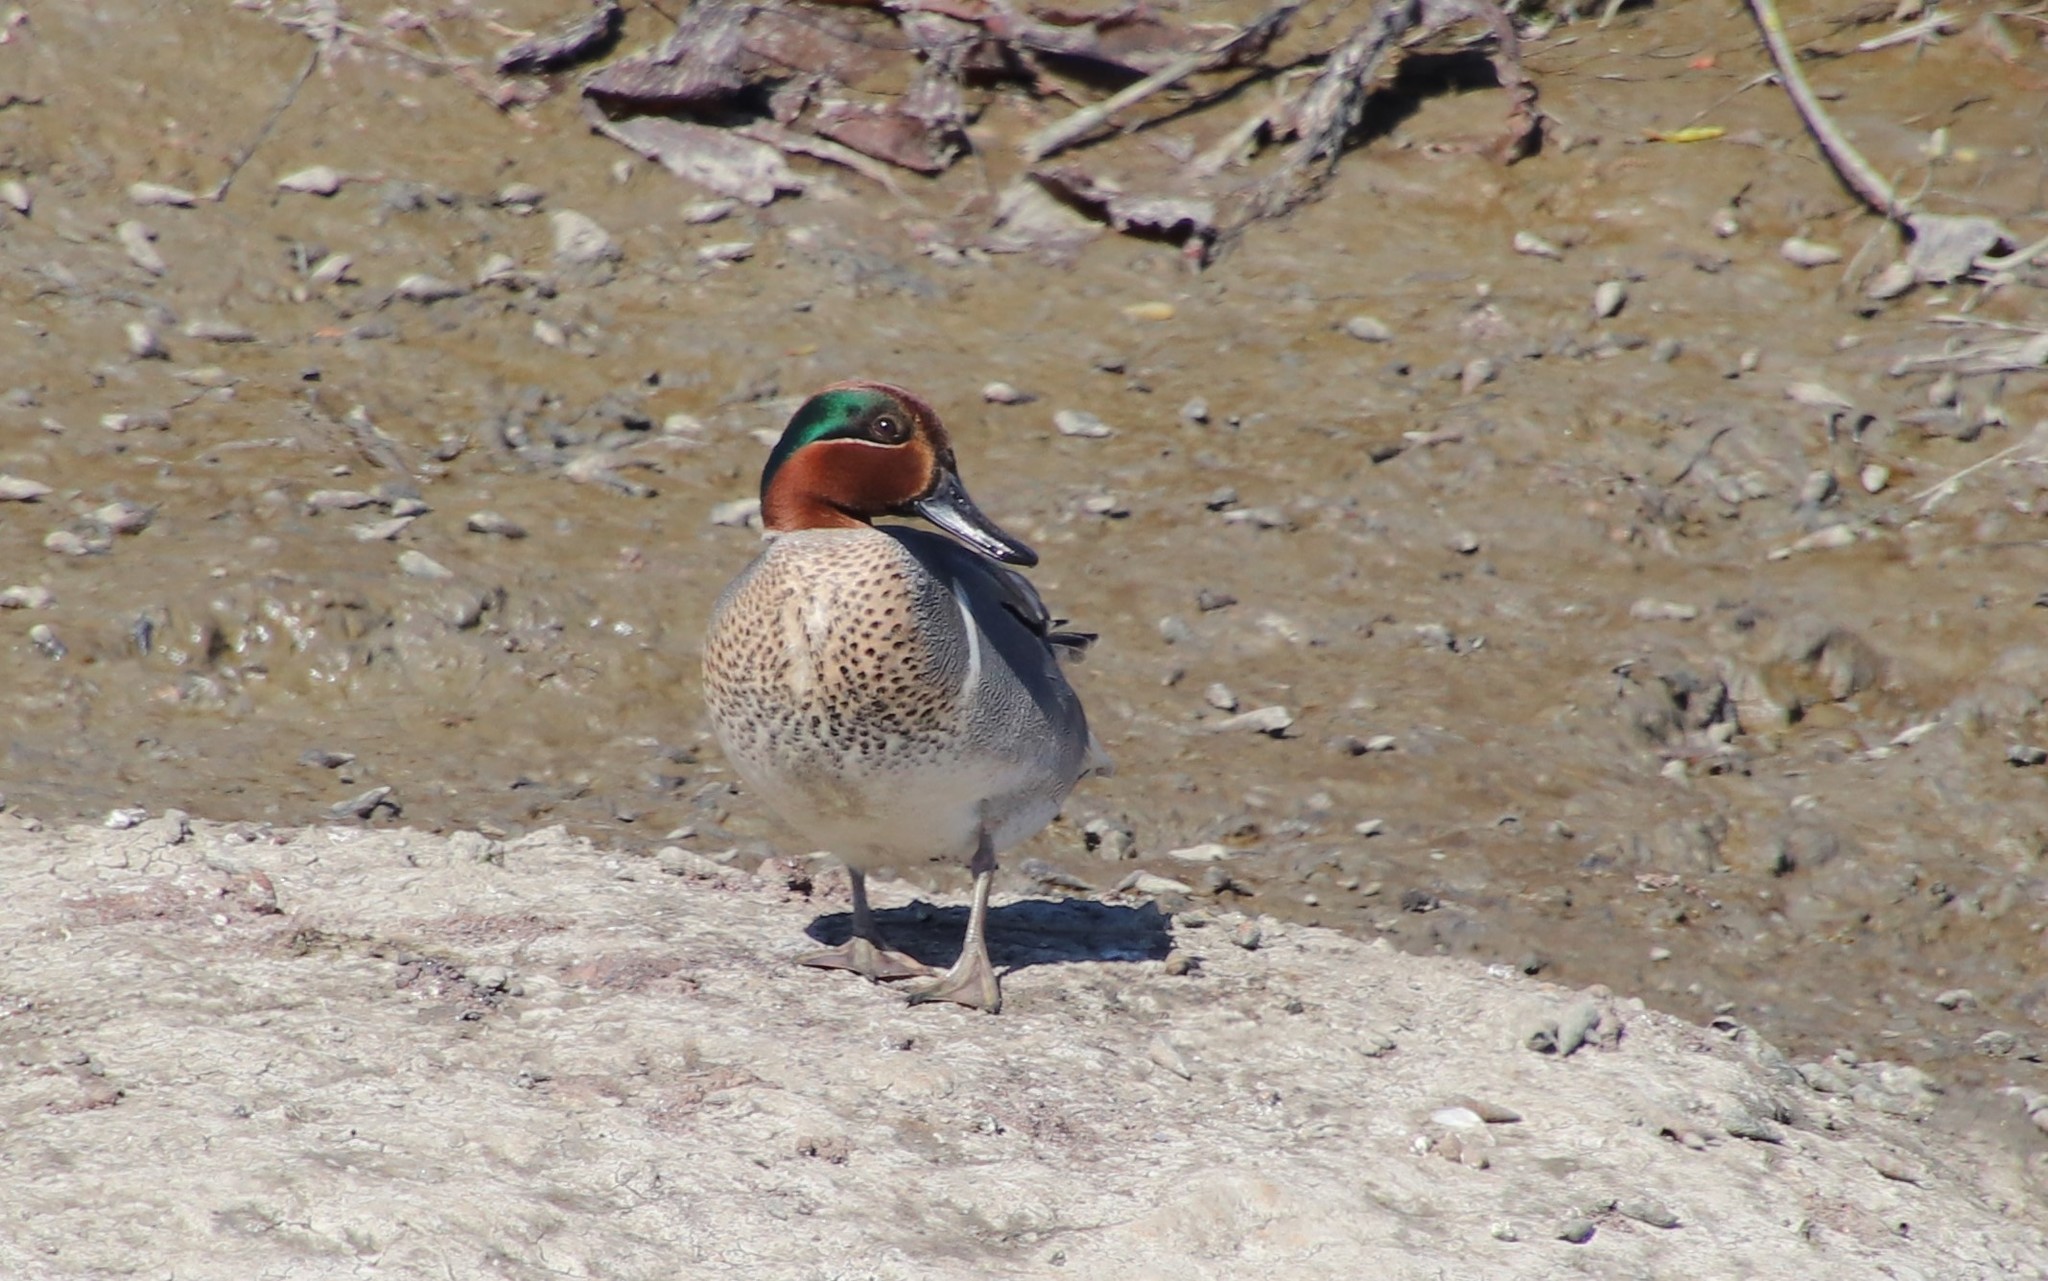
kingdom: Animalia
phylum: Chordata
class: Aves
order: Anseriformes
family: Anatidae
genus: Anas
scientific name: Anas crecca
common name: Eurasian teal
